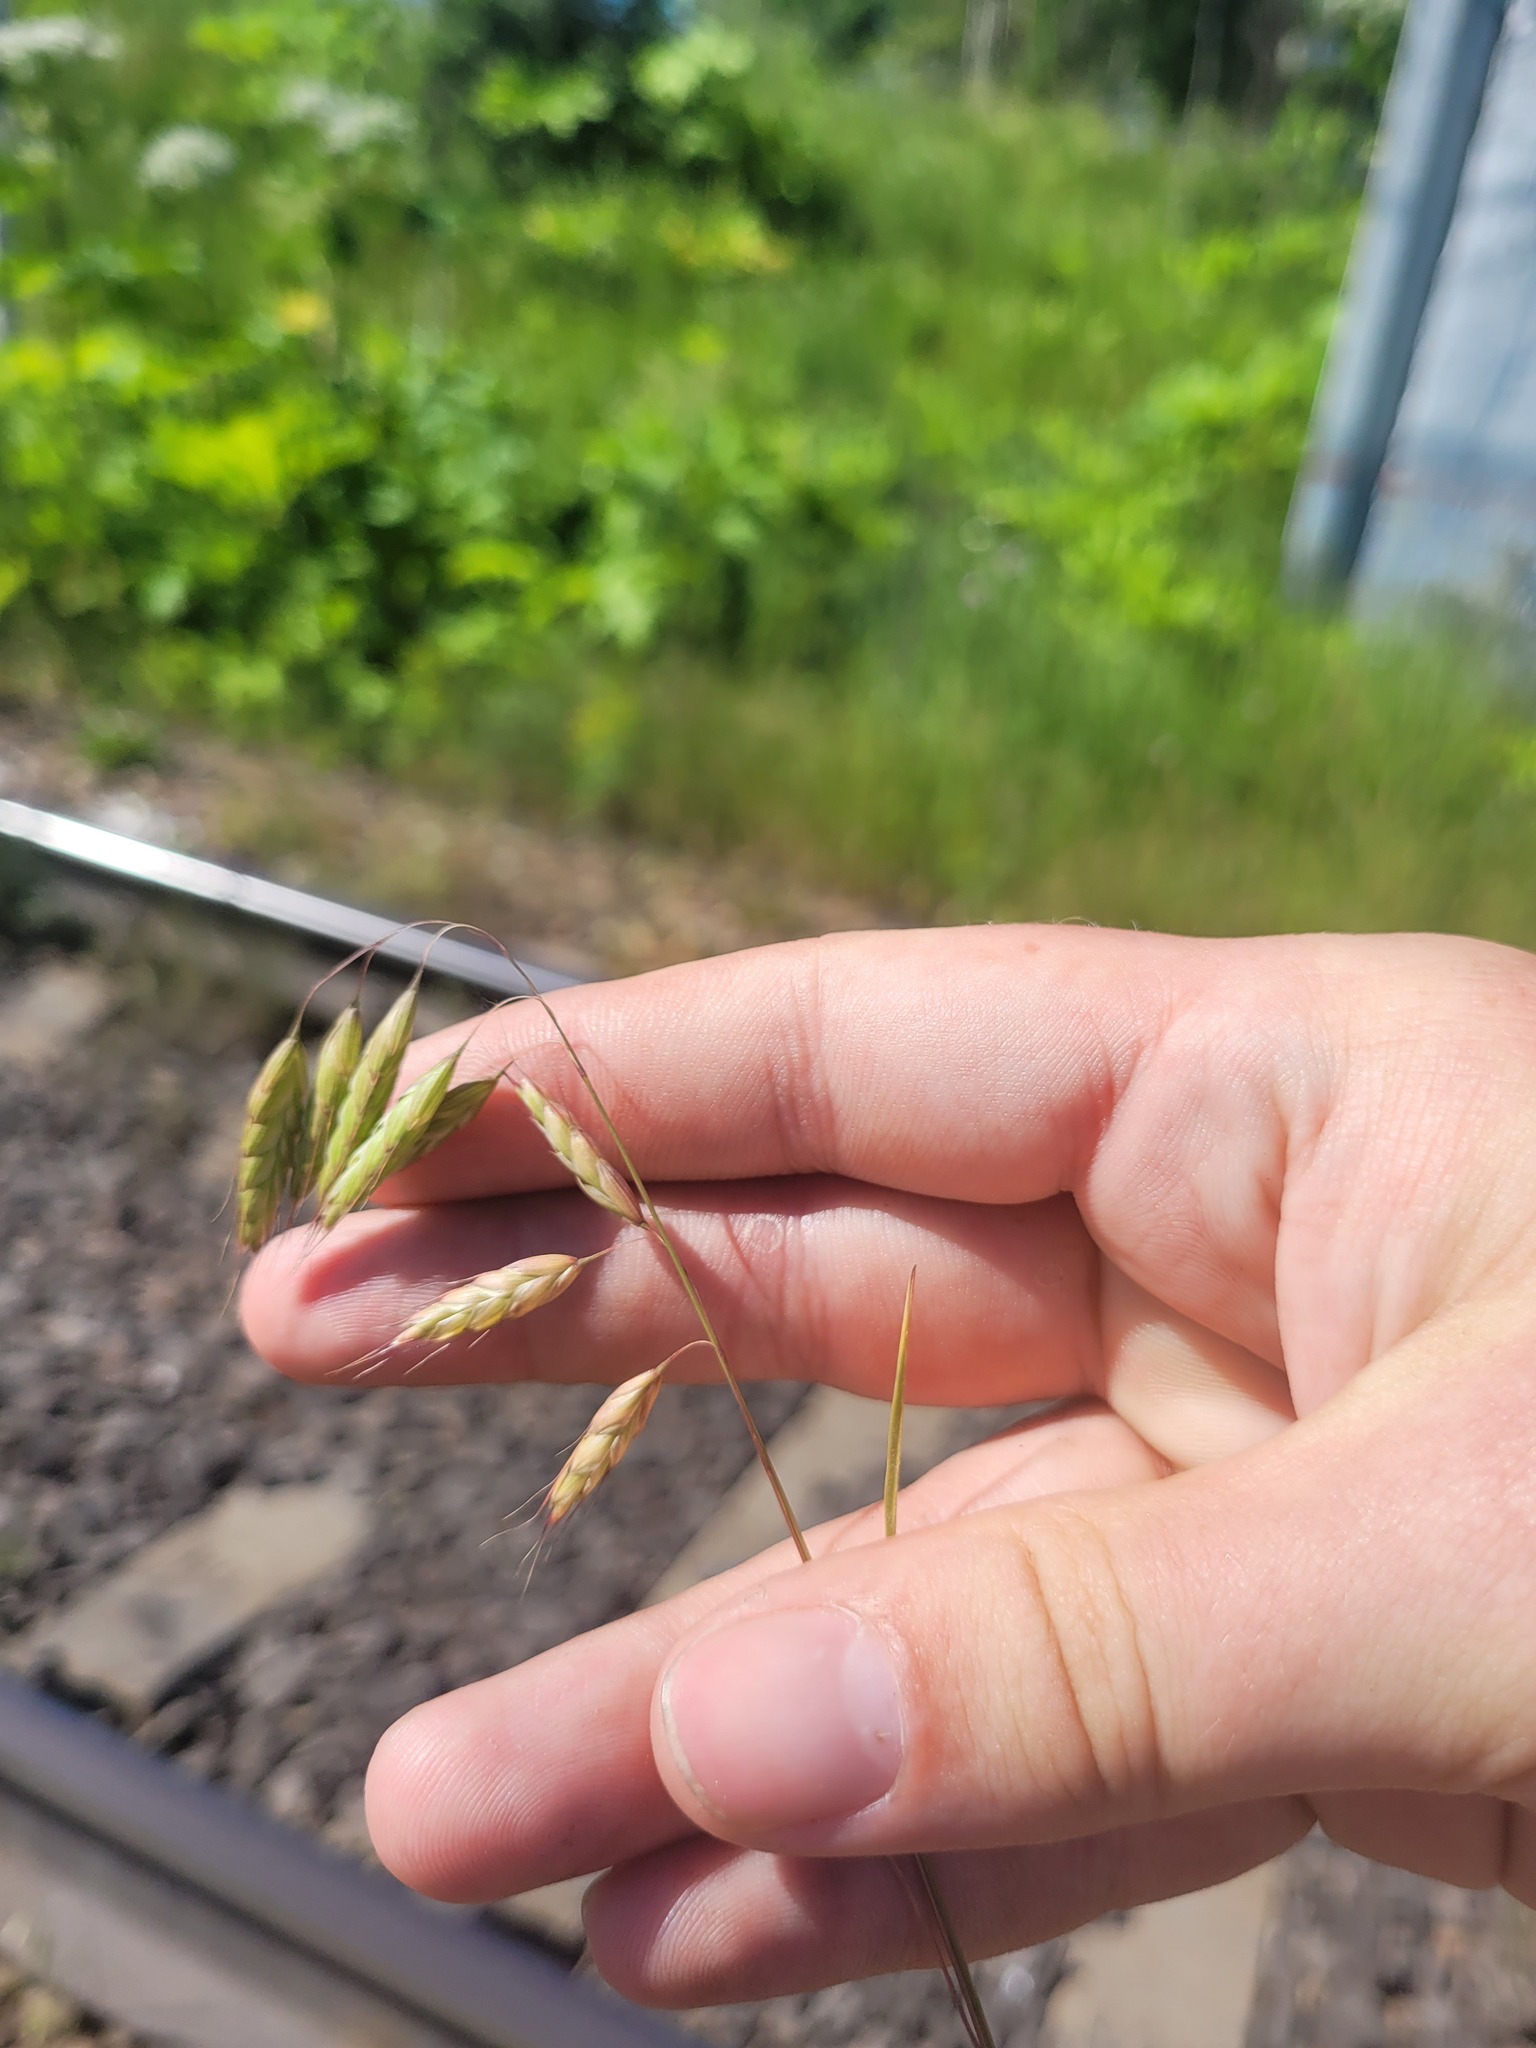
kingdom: Plantae
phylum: Tracheophyta
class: Liliopsida
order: Poales
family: Poaceae
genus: Bromus
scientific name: Bromus squarrosus
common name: Corn brome
